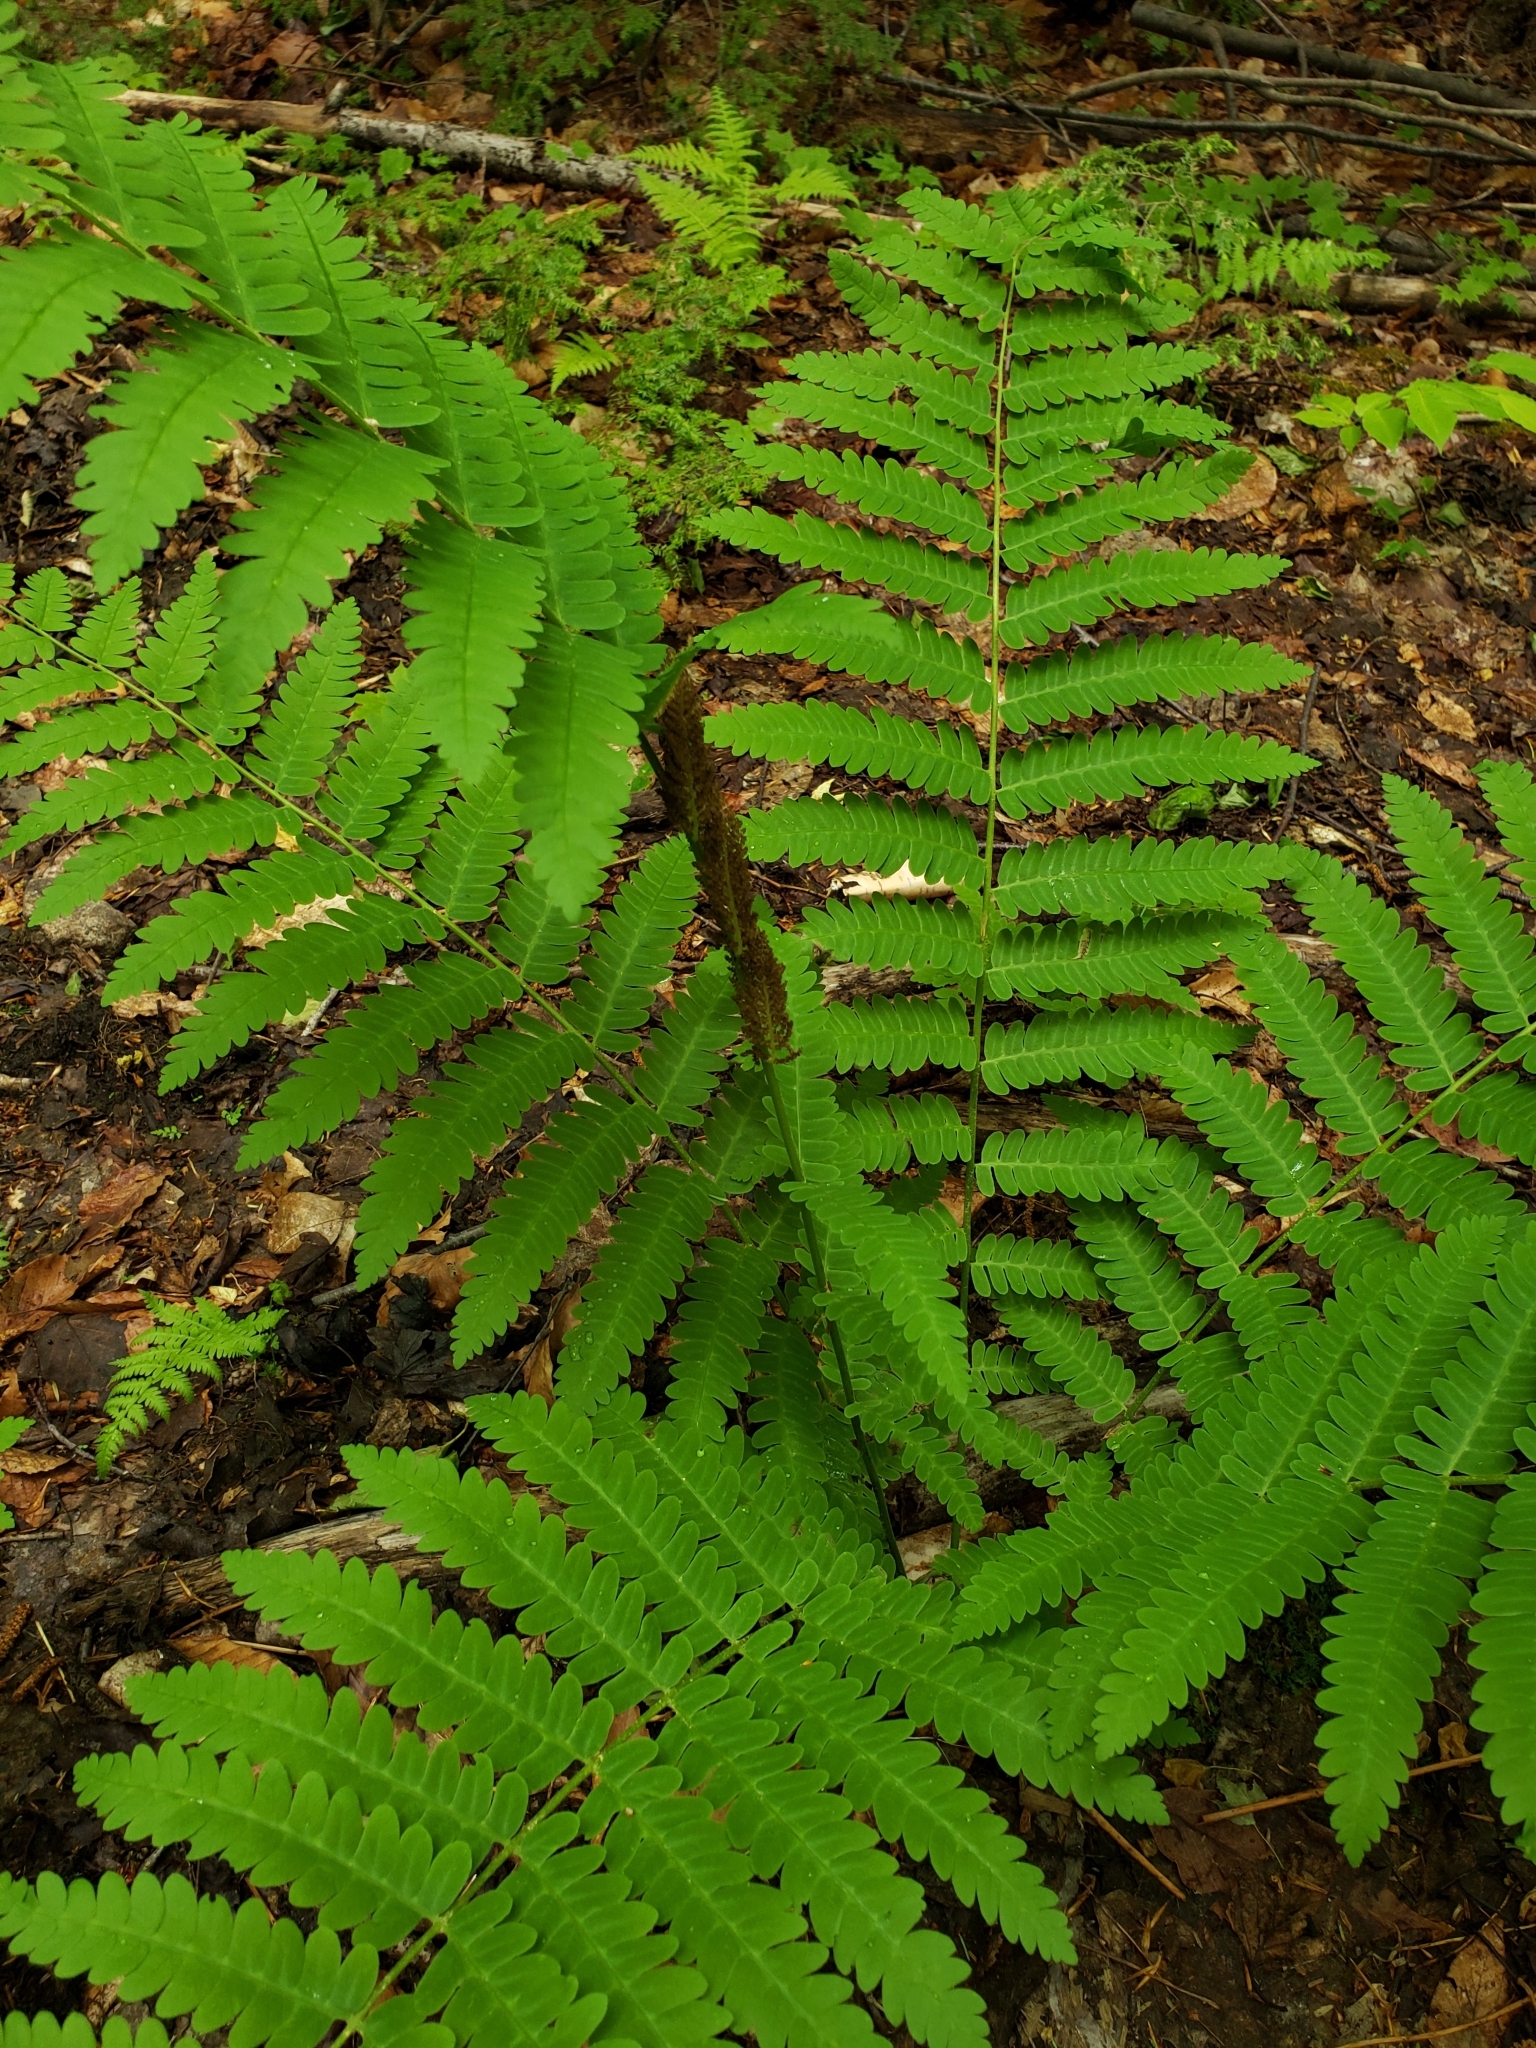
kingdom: Plantae
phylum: Tracheophyta
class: Polypodiopsida
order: Osmundales
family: Osmundaceae
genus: Osmundastrum
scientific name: Osmundastrum cinnamomeum
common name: Cinnamon fern
